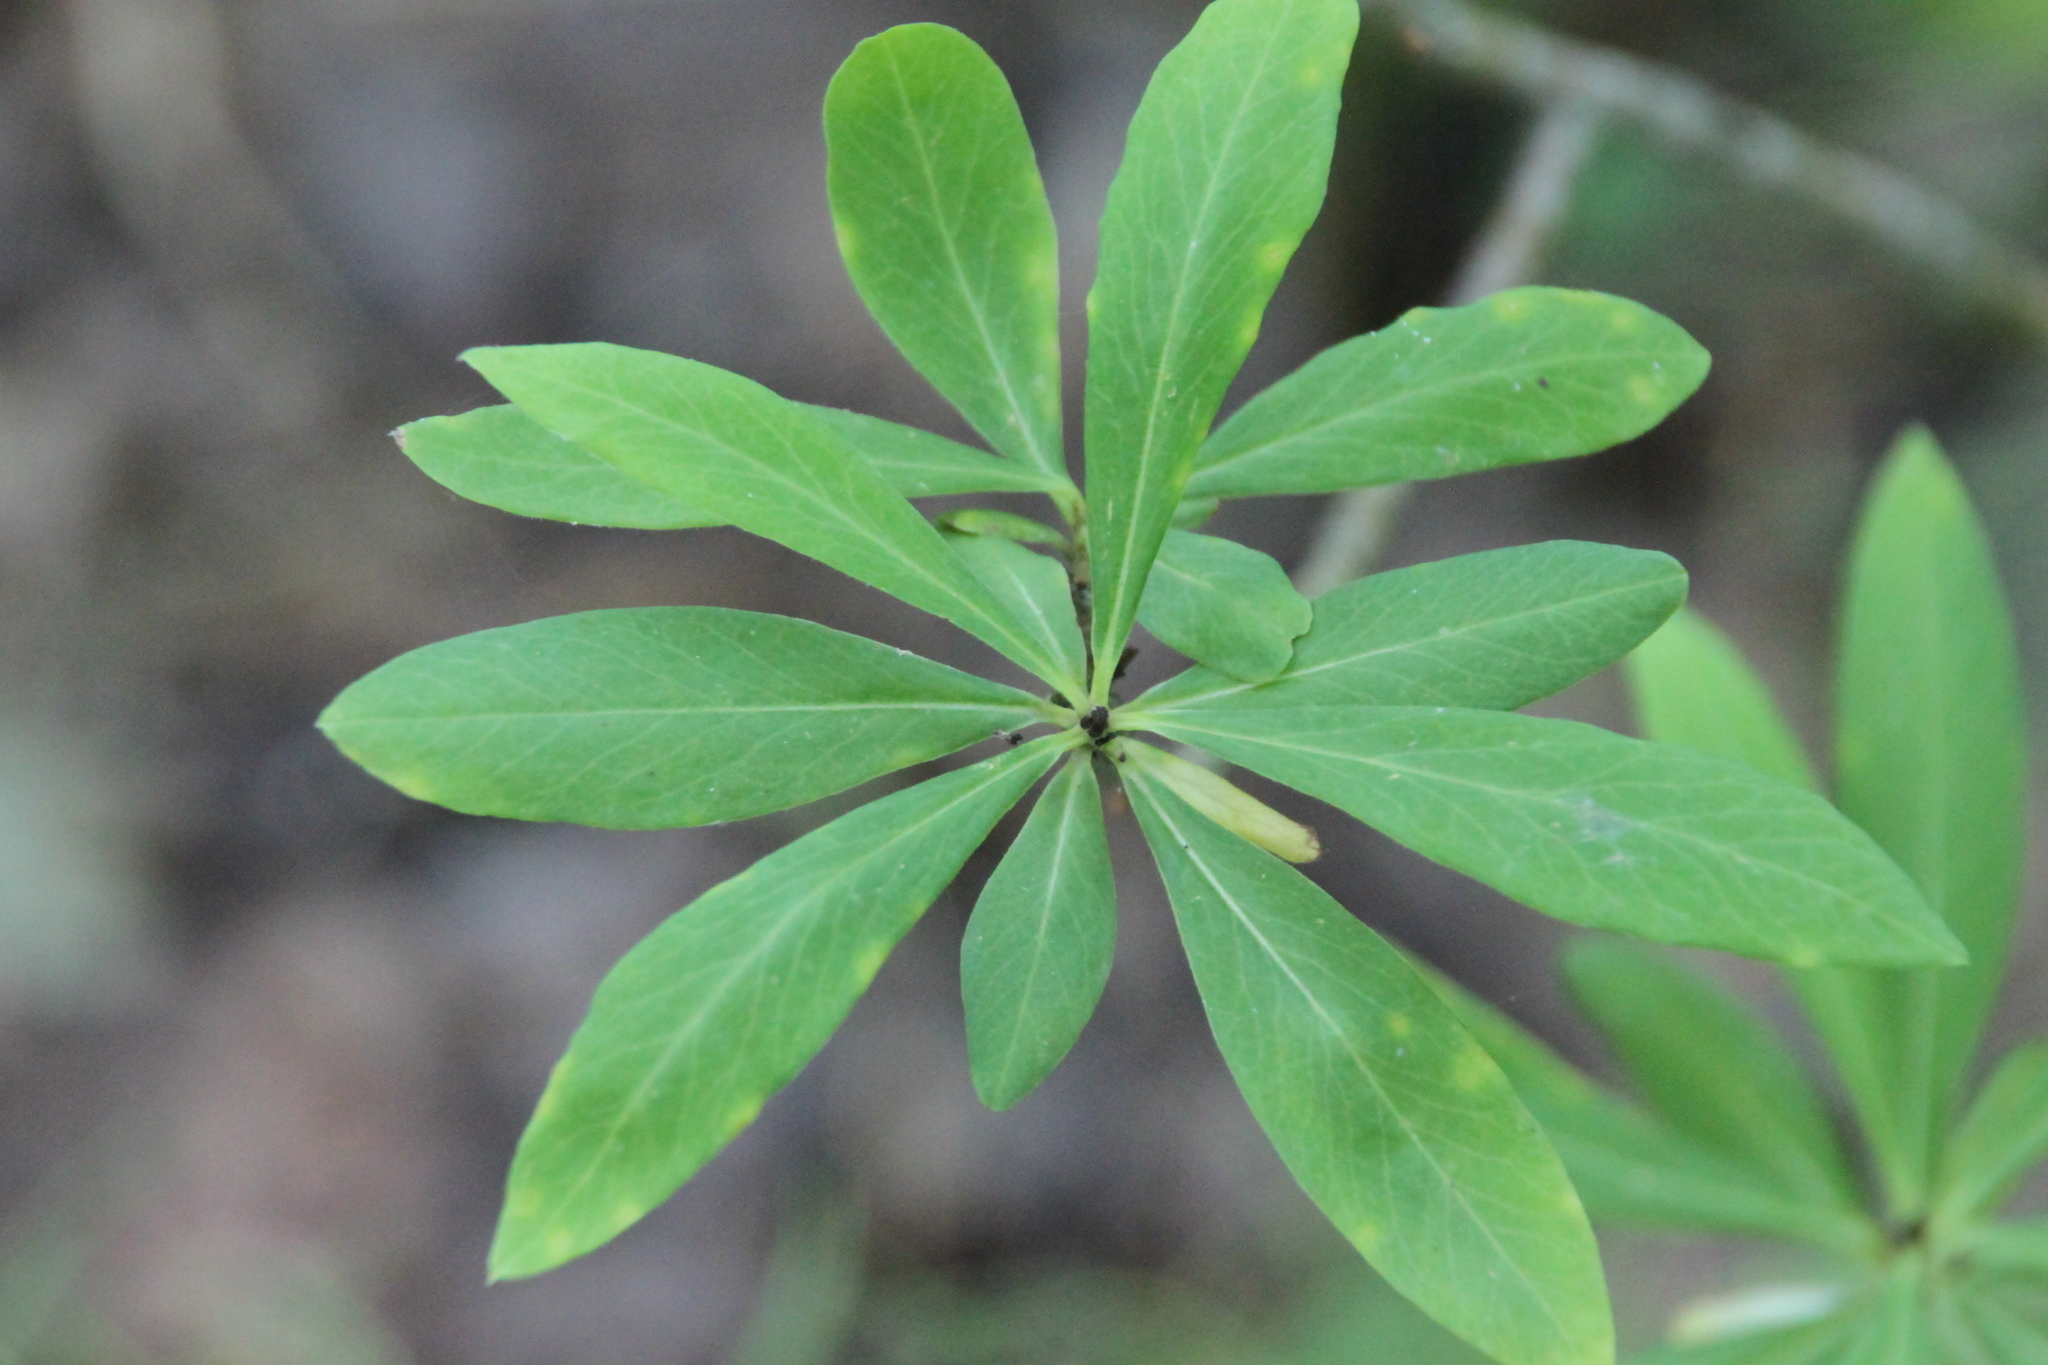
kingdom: Plantae
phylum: Tracheophyta
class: Magnoliopsida
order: Malvales
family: Thymelaeaceae
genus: Daphne
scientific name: Daphne mezereum
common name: Mezereon
